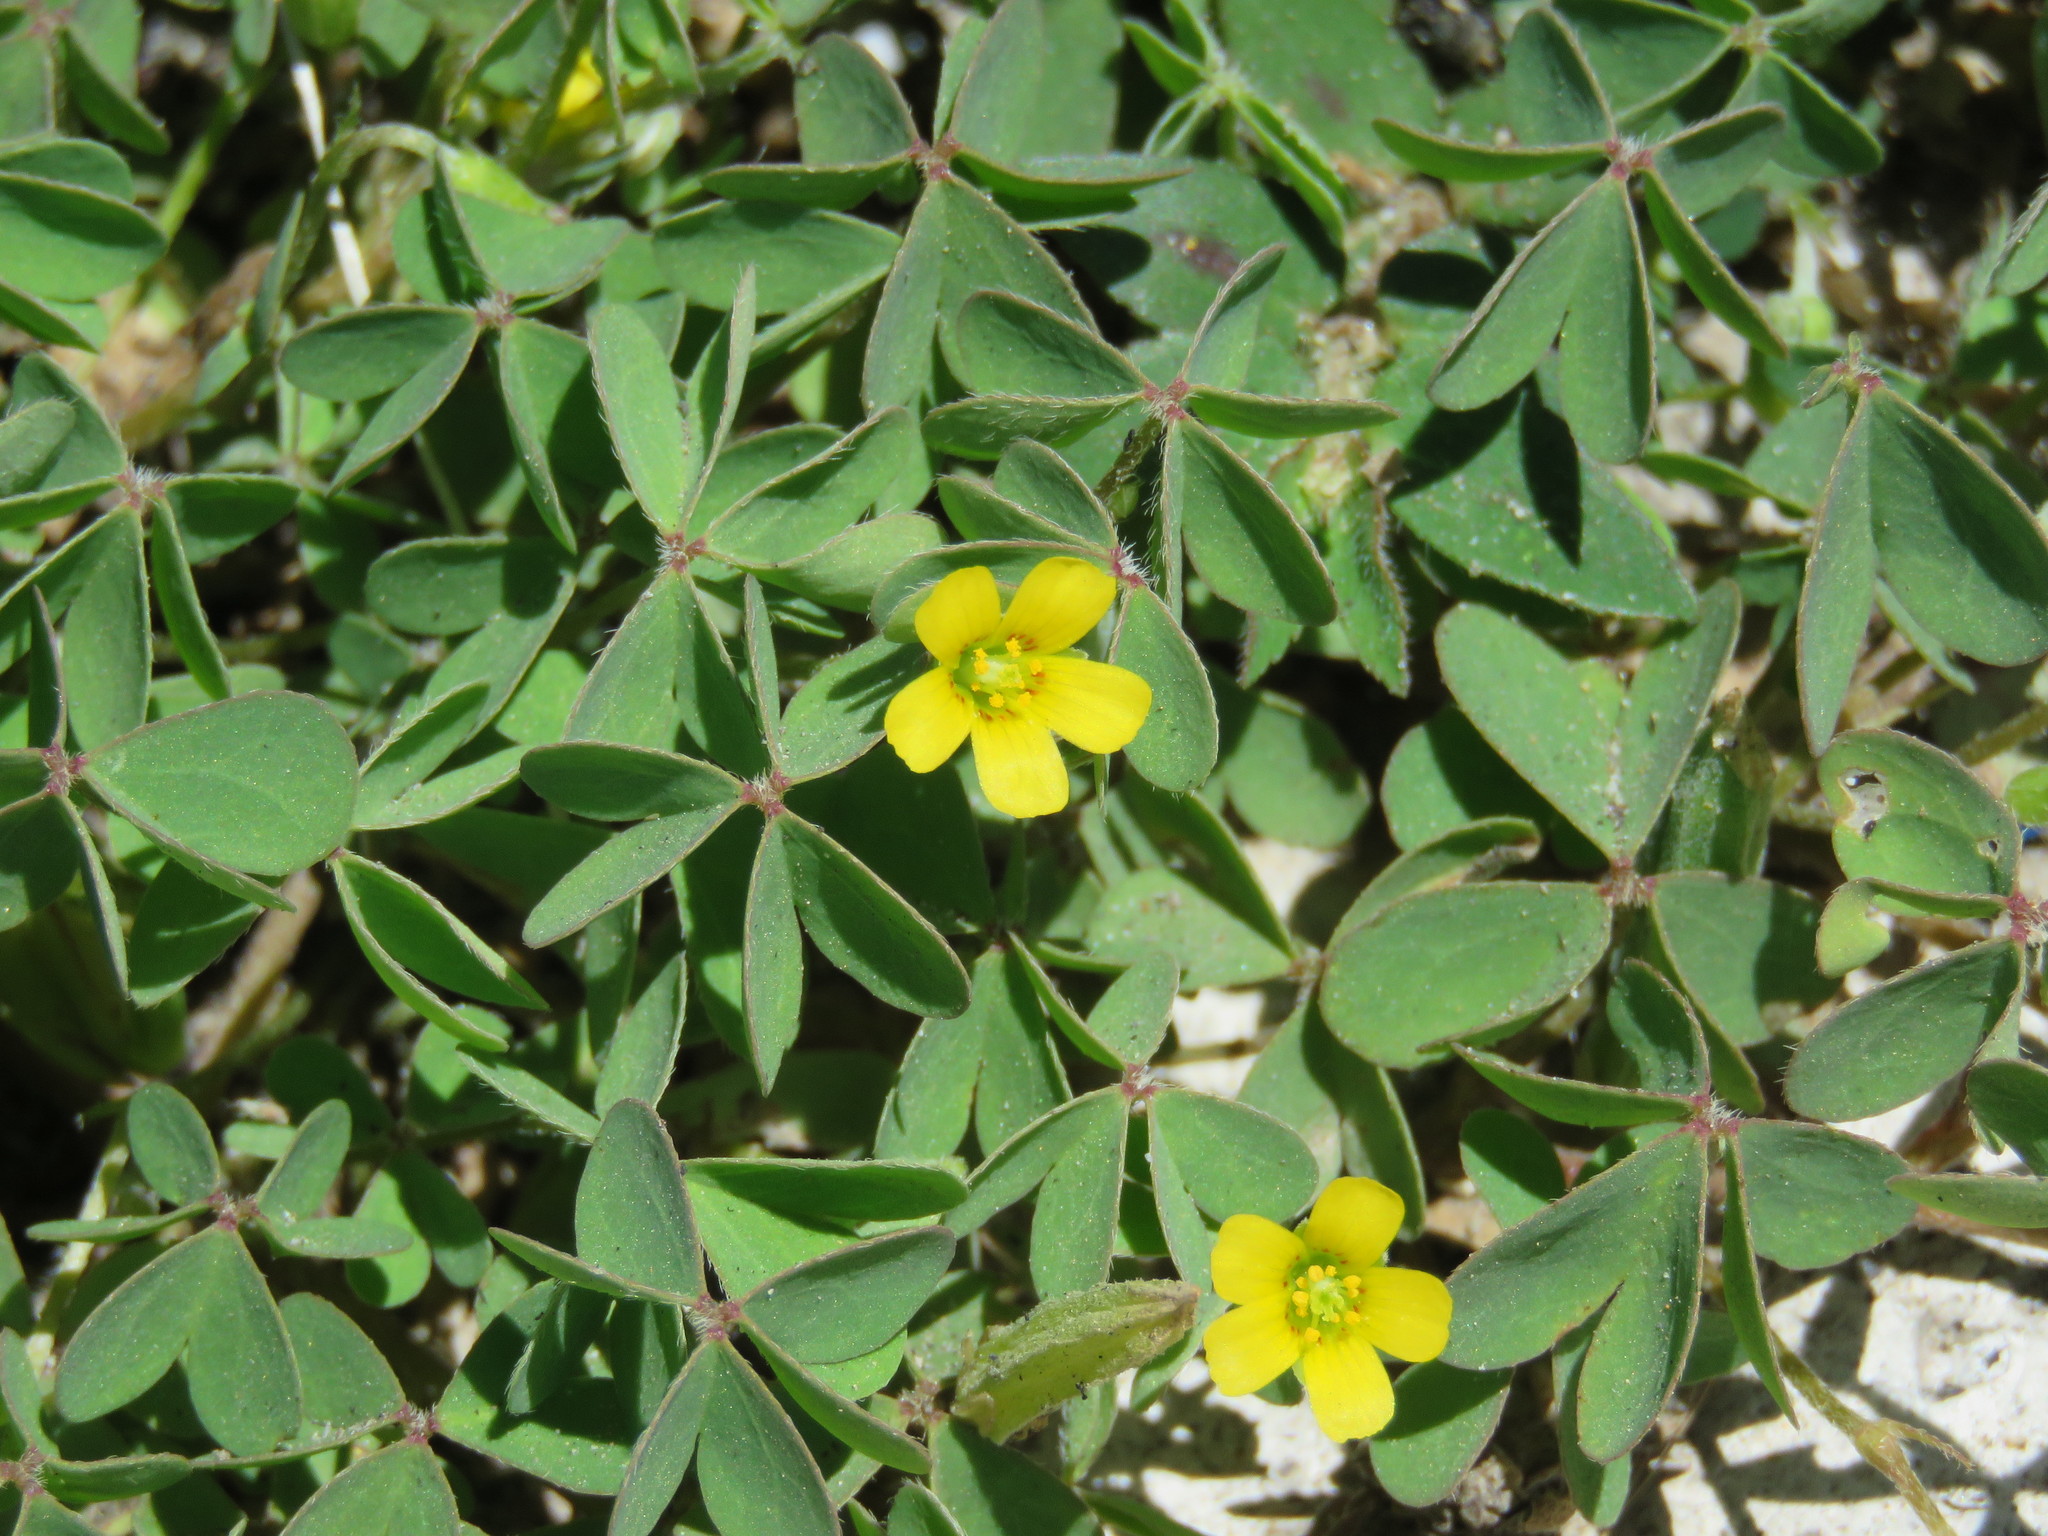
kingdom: Plantae
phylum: Tracheophyta
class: Magnoliopsida
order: Oxalidales
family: Oxalidaceae
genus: Oxalis
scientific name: Oxalis corniculata
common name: Procumbent yellow-sorrel
